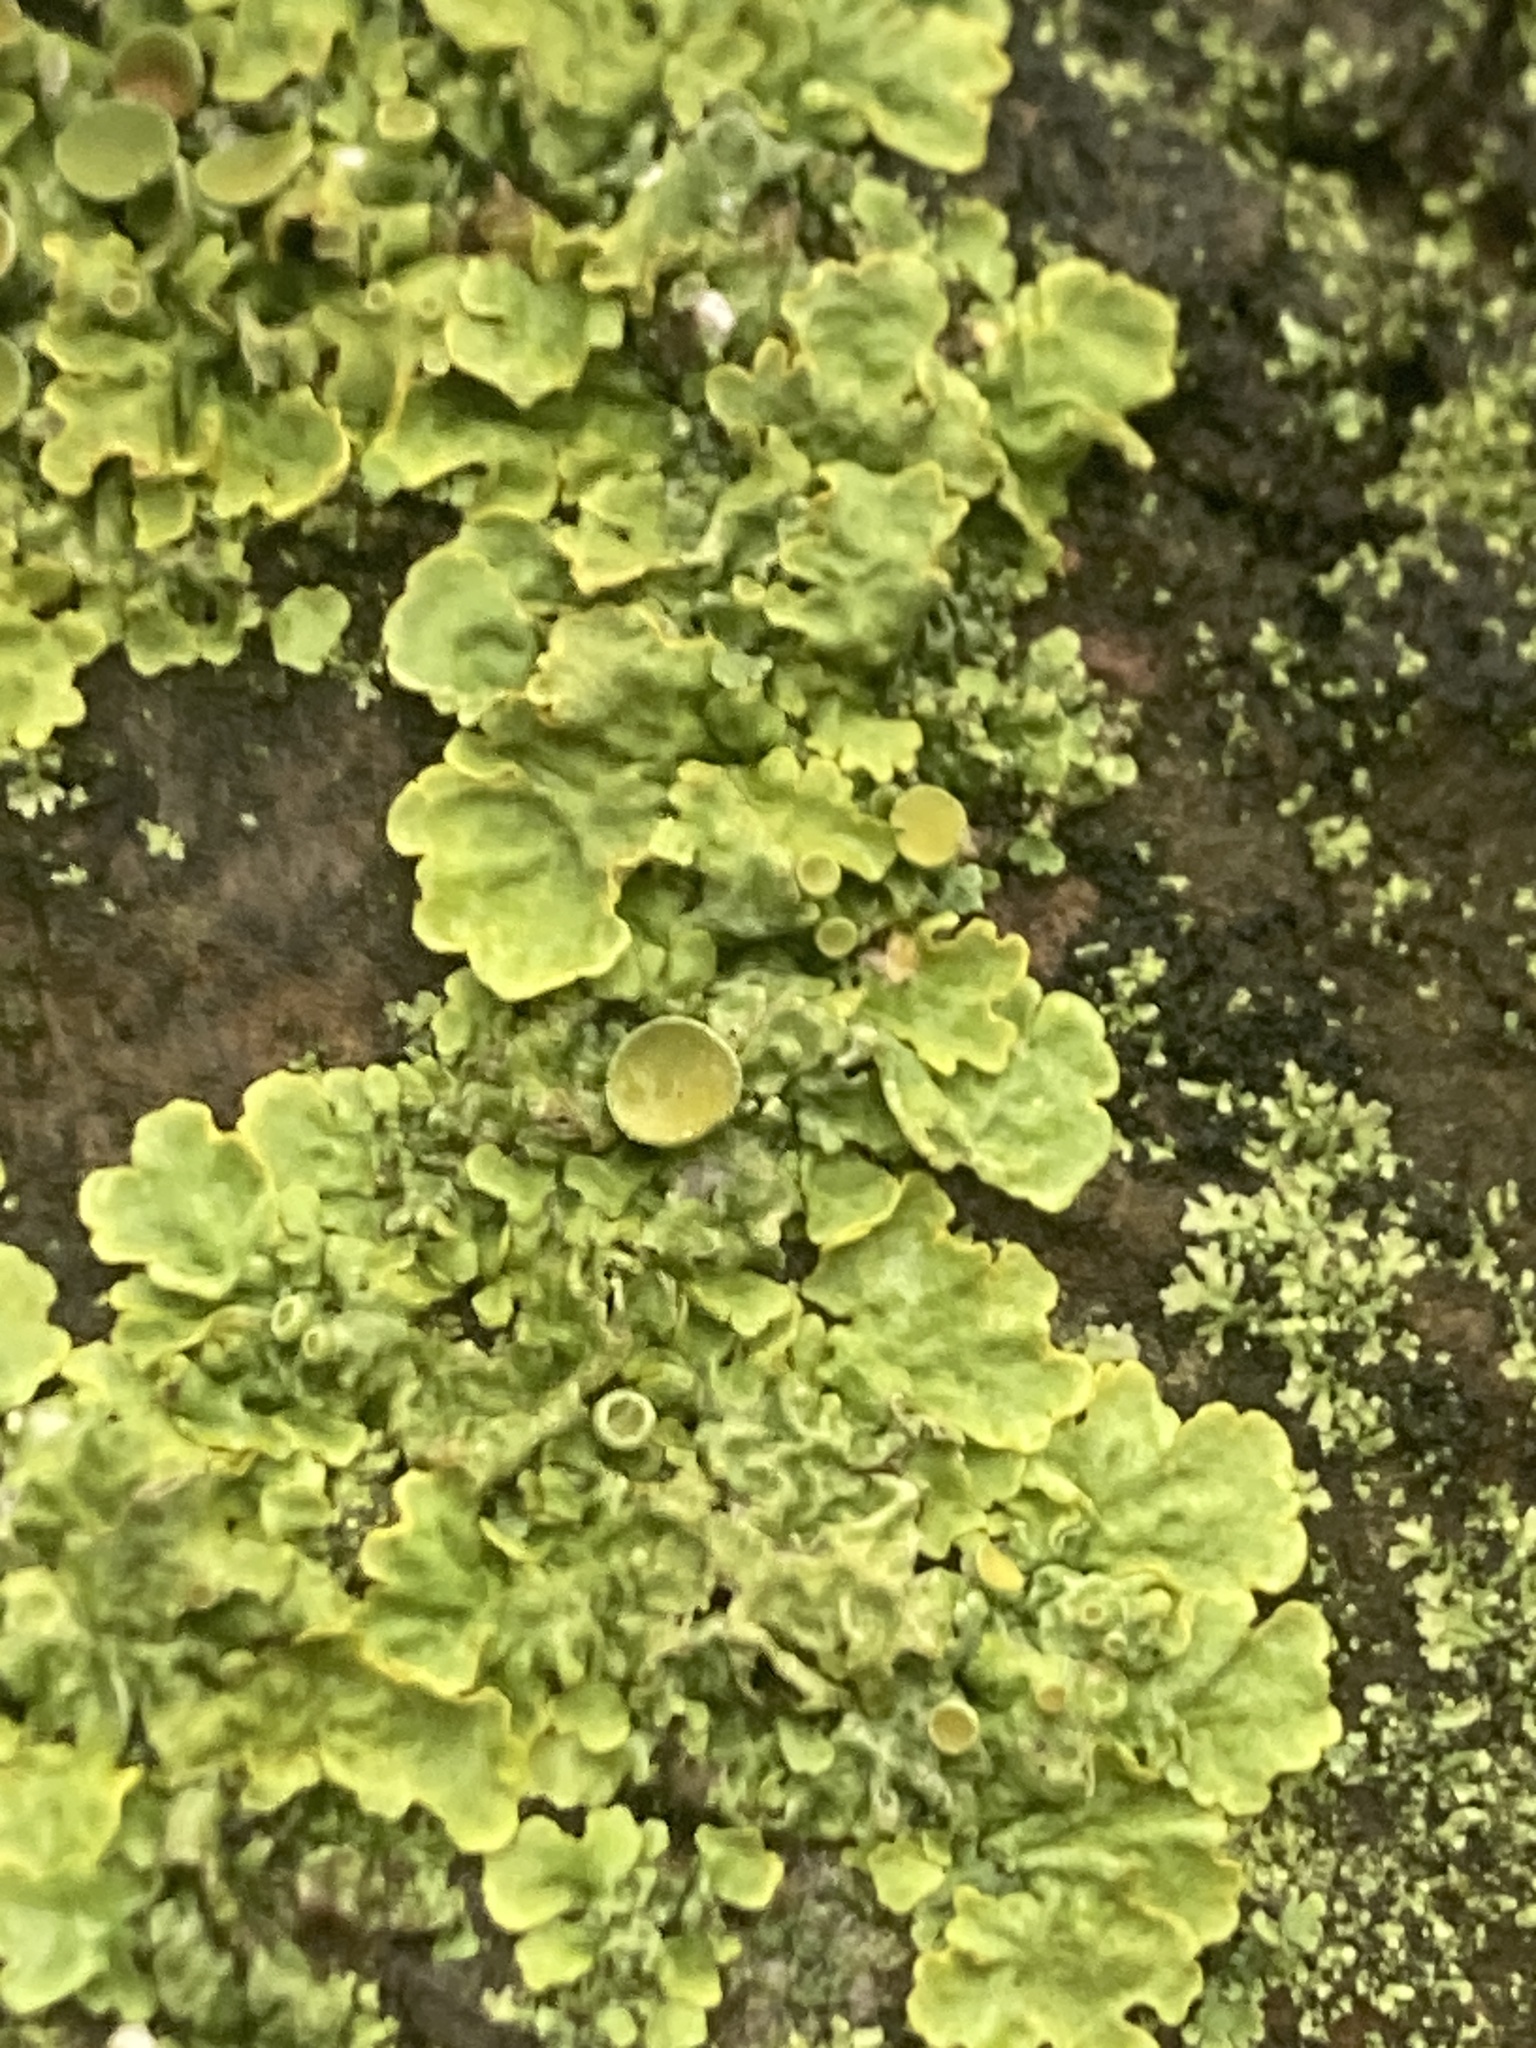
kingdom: Fungi
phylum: Ascomycota
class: Lecanoromycetes
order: Teloschistales
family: Teloschistaceae
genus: Xanthoria
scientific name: Xanthoria parietina
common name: Common orange lichen
